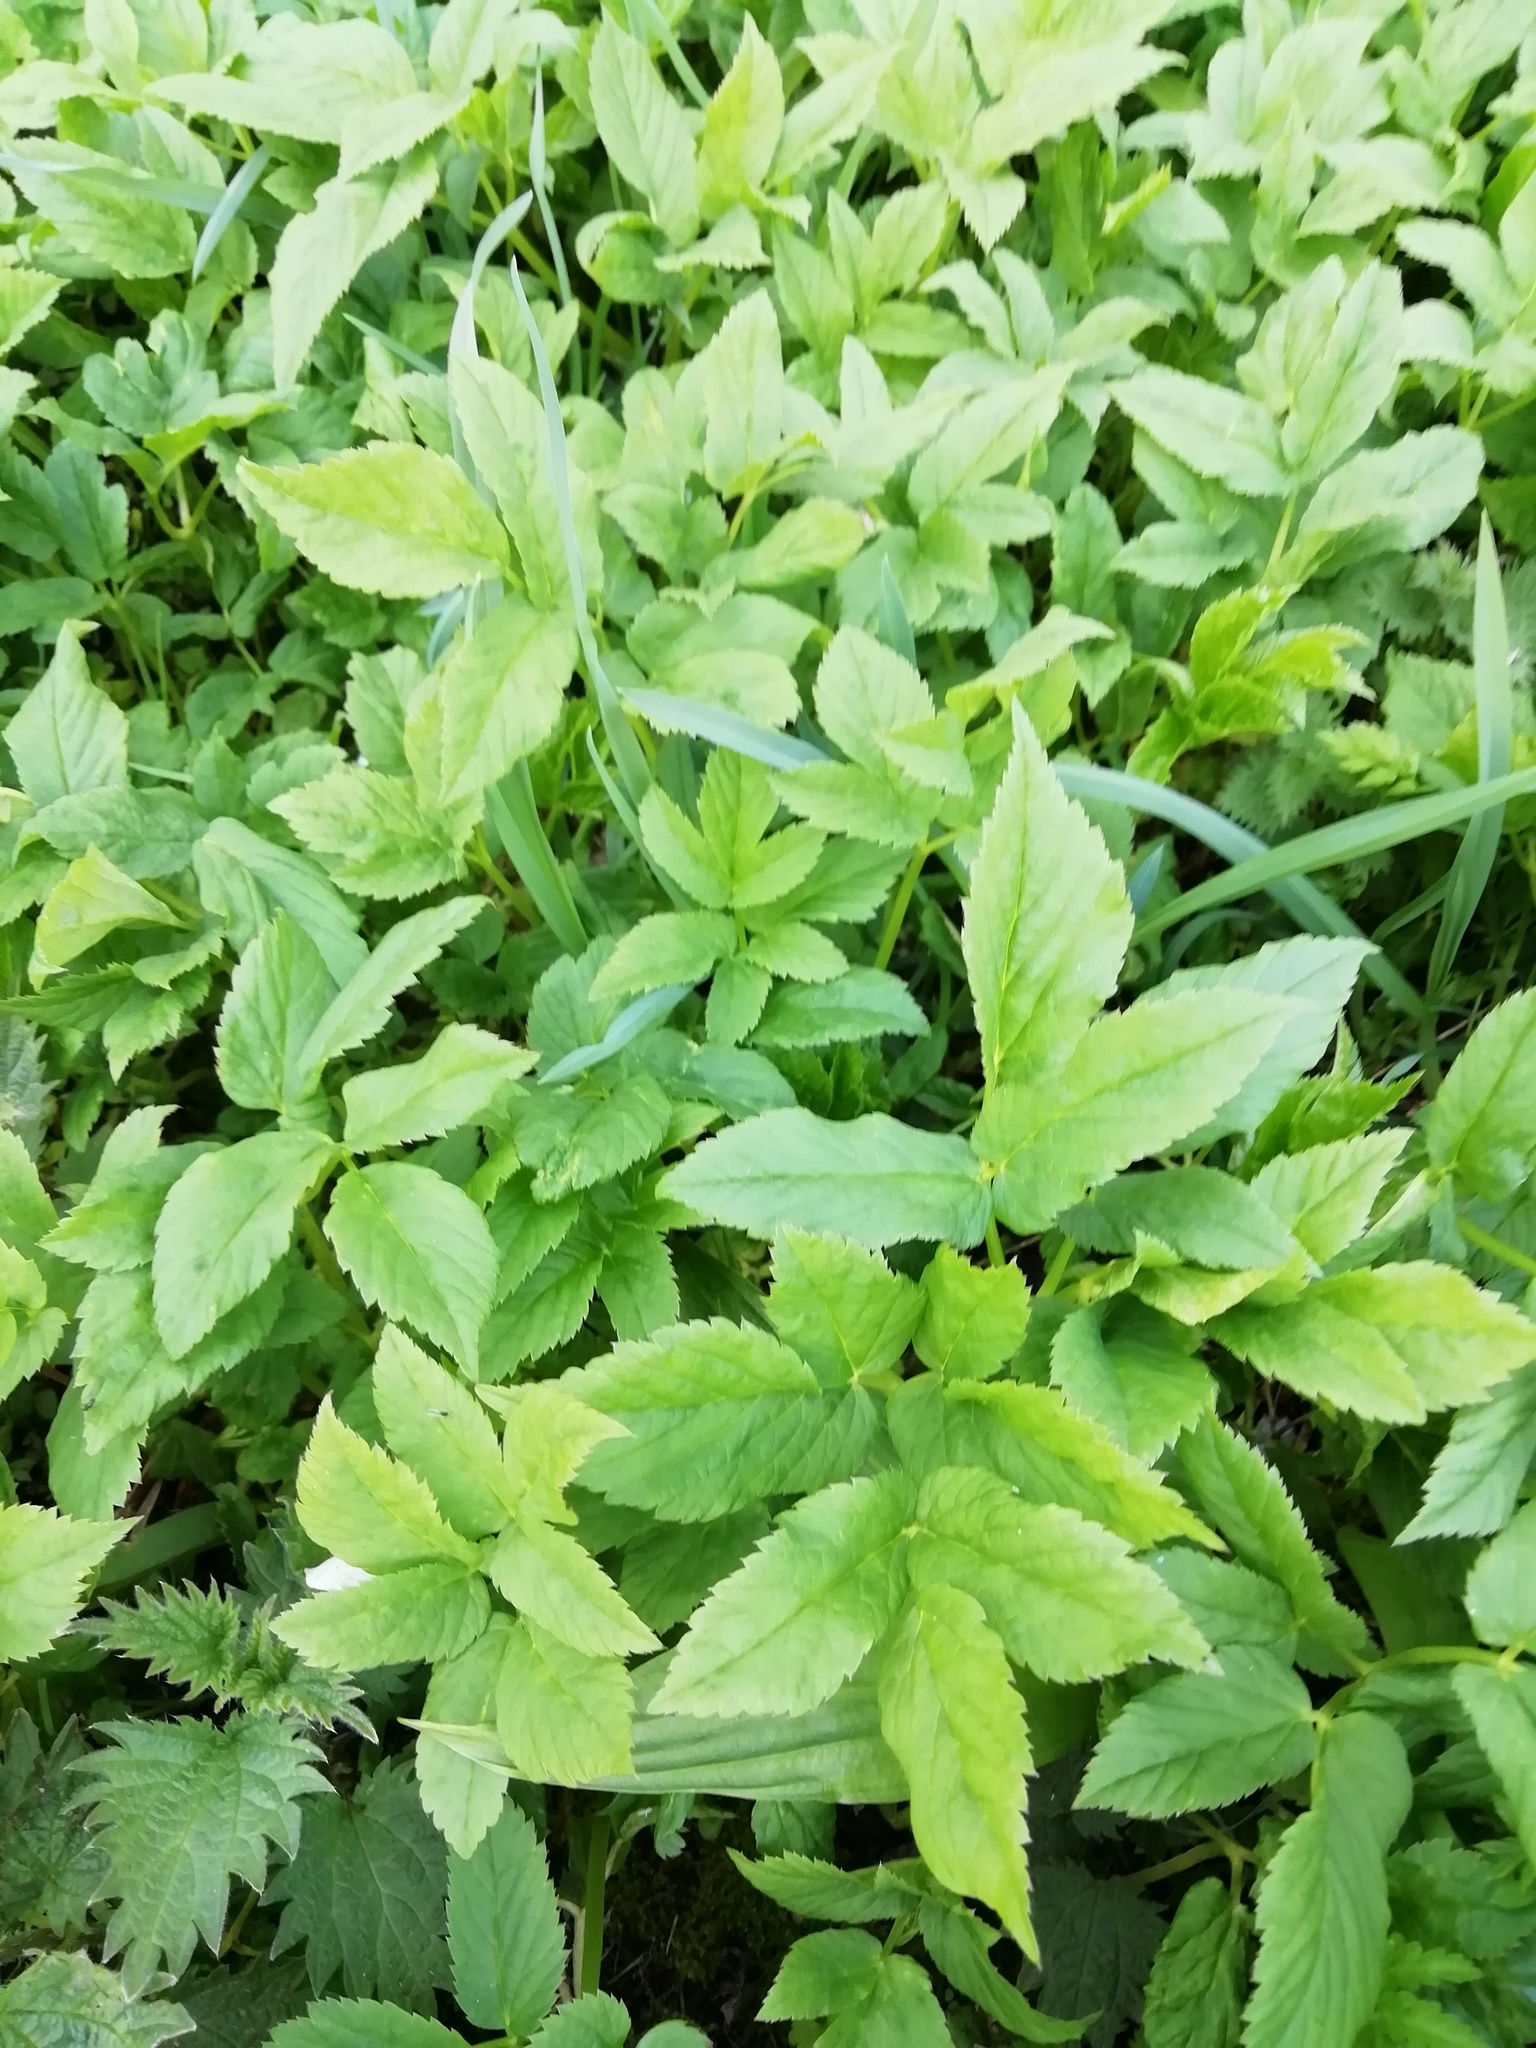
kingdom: Plantae
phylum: Tracheophyta
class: Magnoliopsida
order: Apiales
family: Apiaceae
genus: Aegopodium
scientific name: Aegopodium podagraria
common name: Ground-elder
